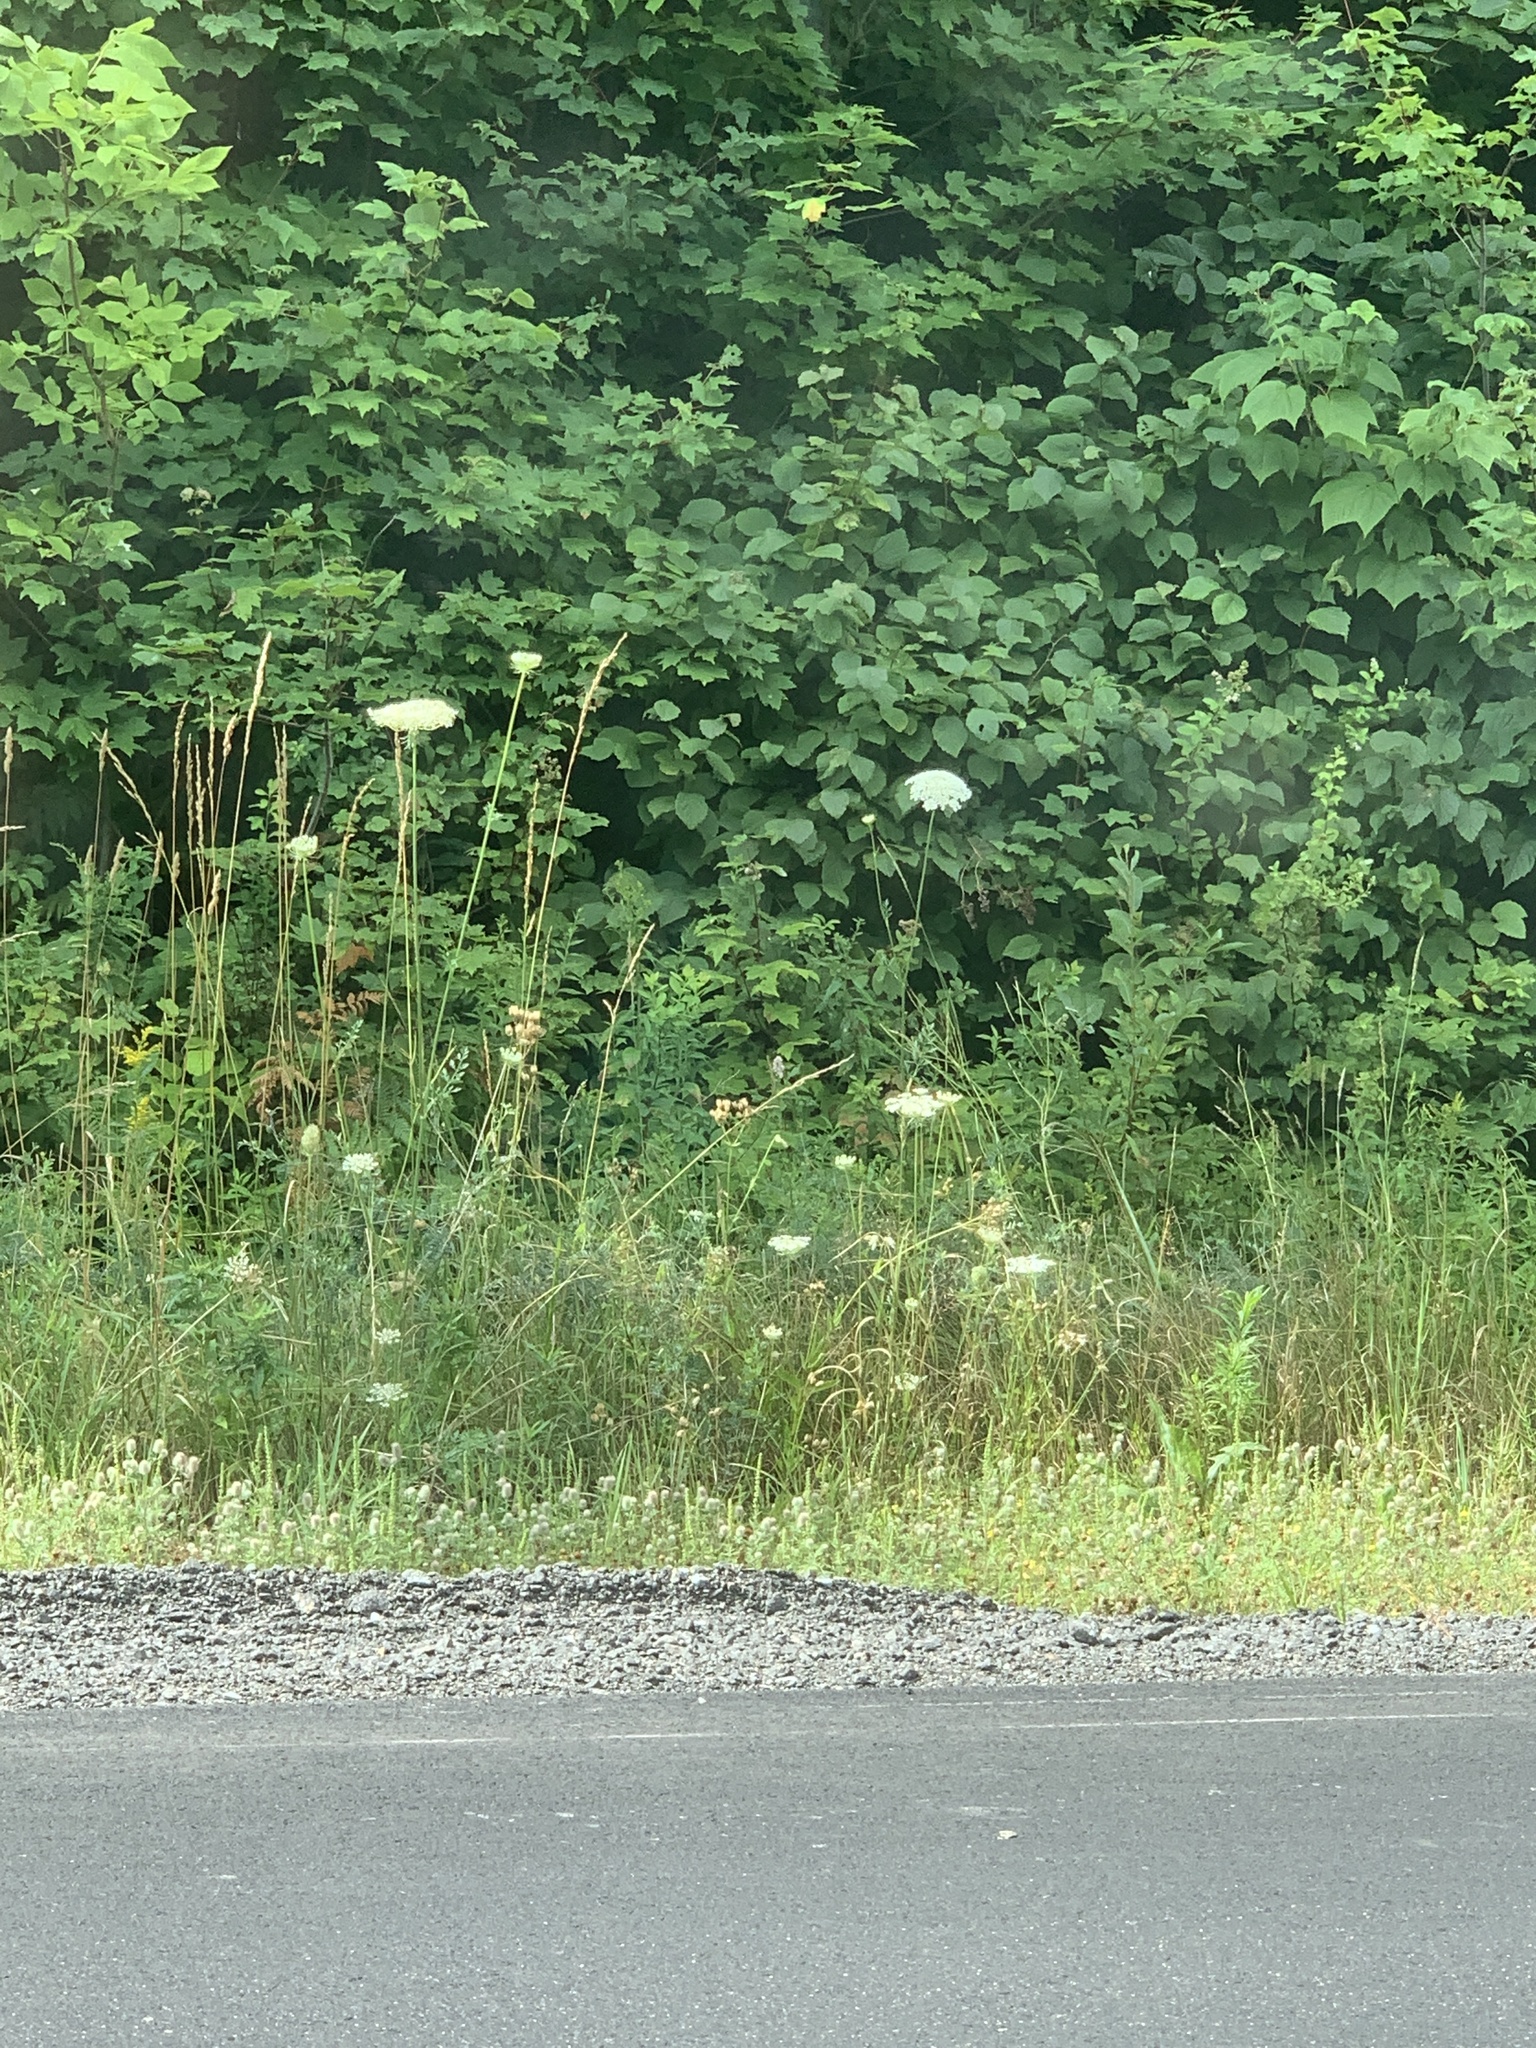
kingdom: Plantae
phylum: Tracheophyta
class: Magnoliopsida
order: Apiales
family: Apiaceae
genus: Daucus
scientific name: Daucus carota
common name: Wild carrot
